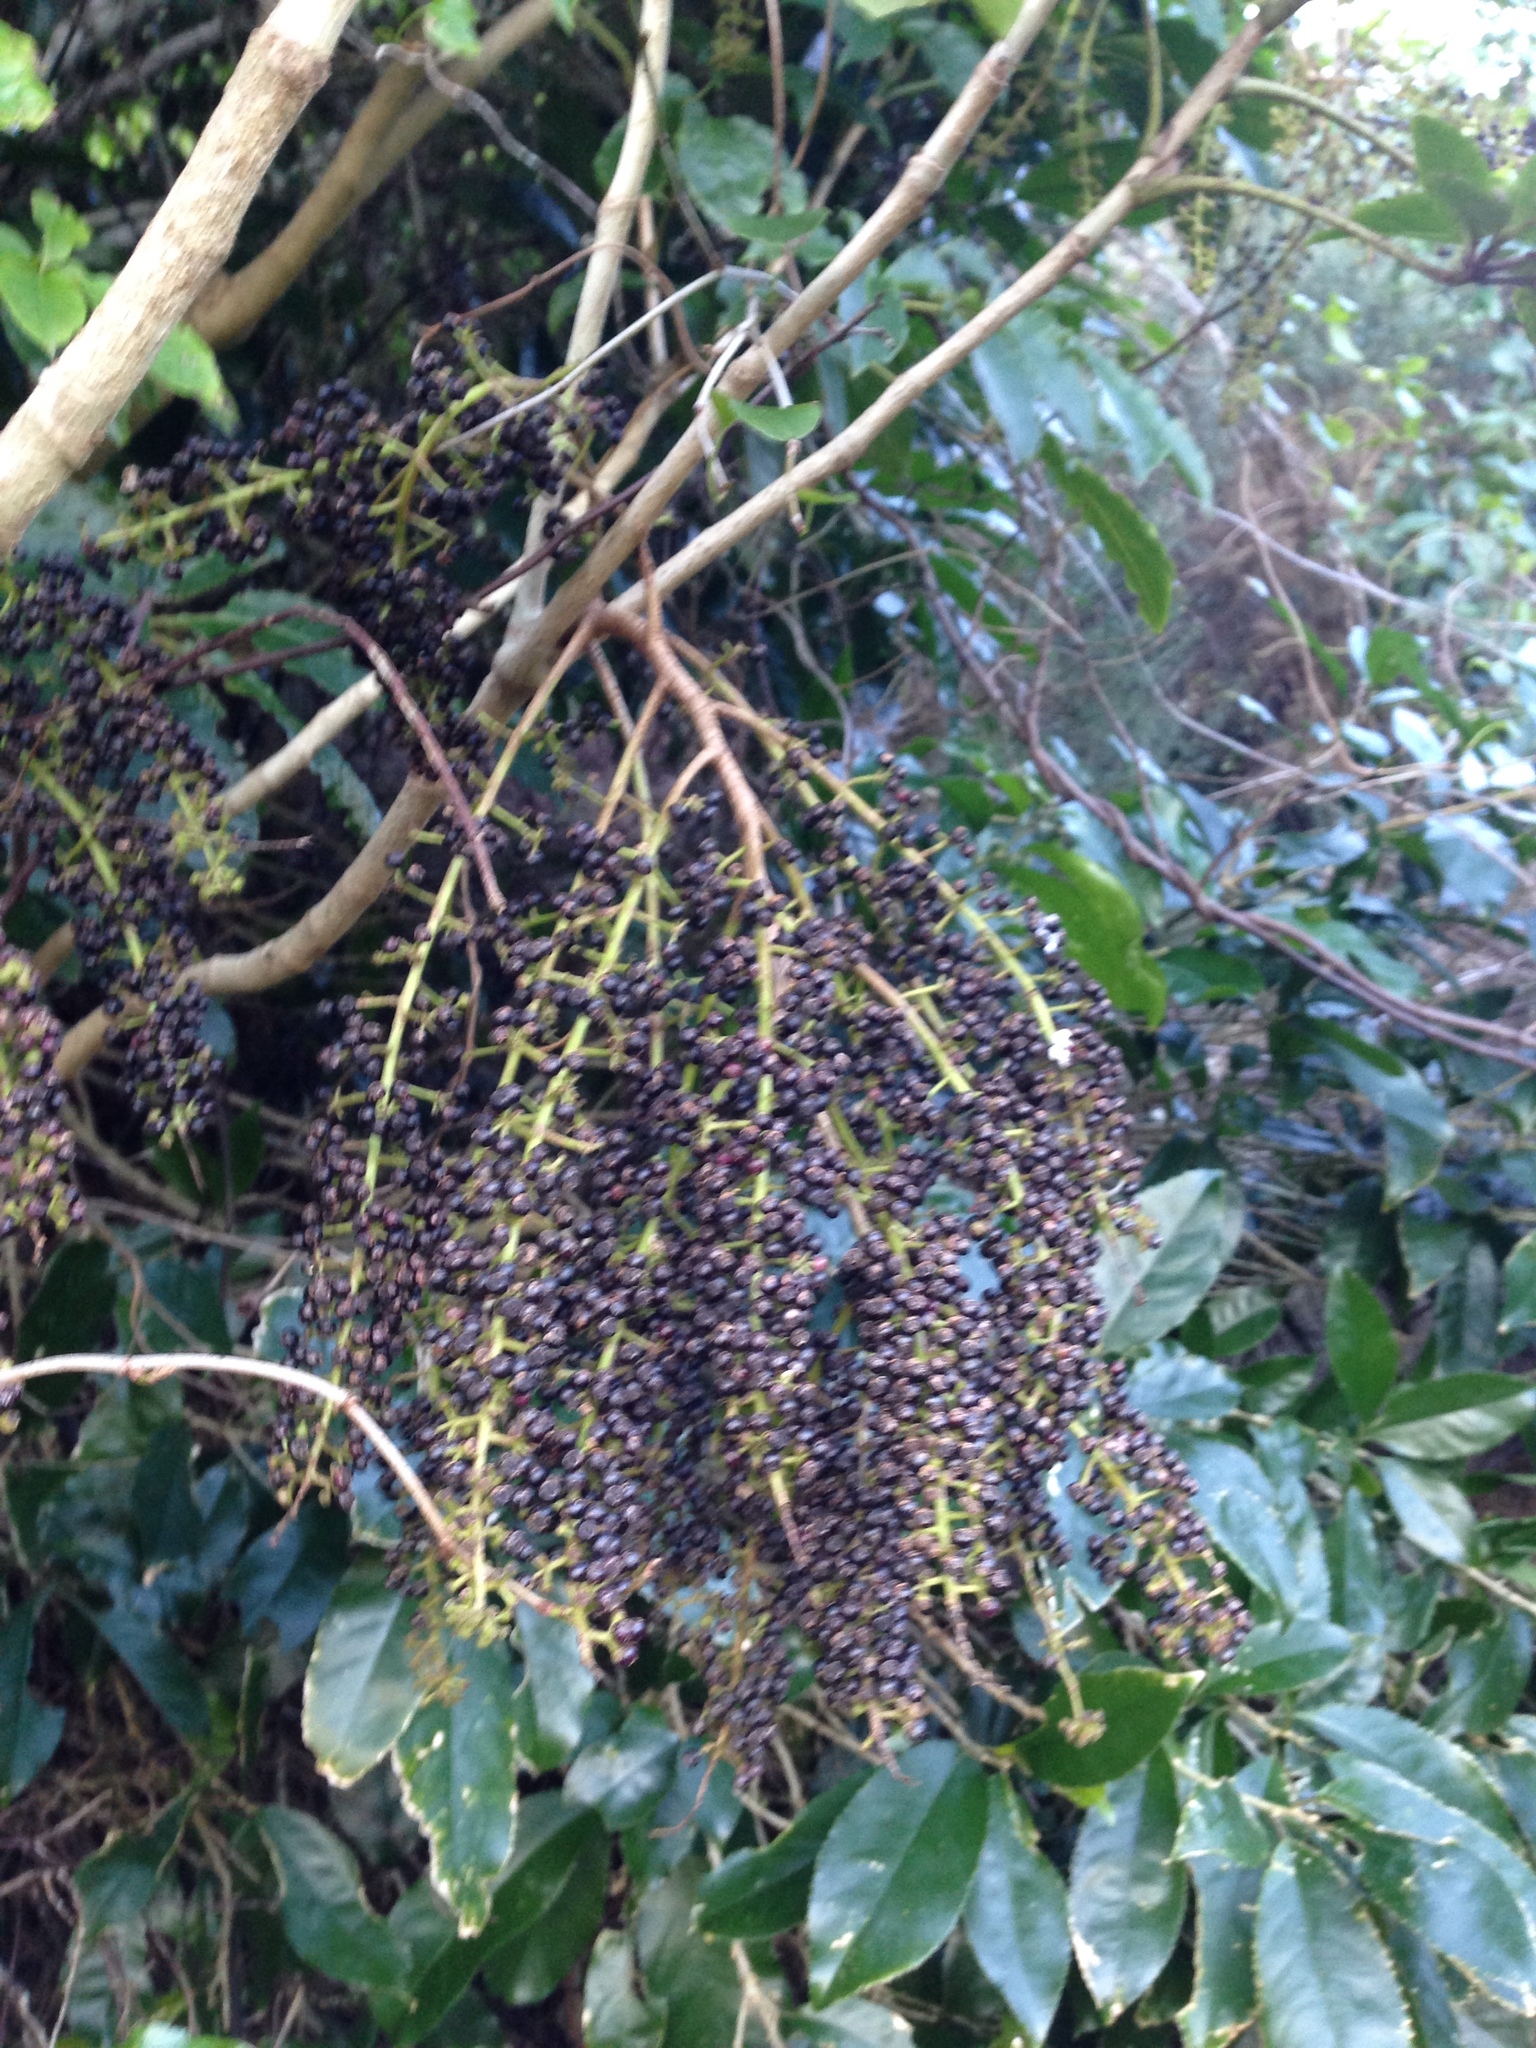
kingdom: Plantae
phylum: Tracheophyta
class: Magnoliopsida
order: Apiales
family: Araliaceae
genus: Schefflera
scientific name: Schefflera digitata
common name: Pate
